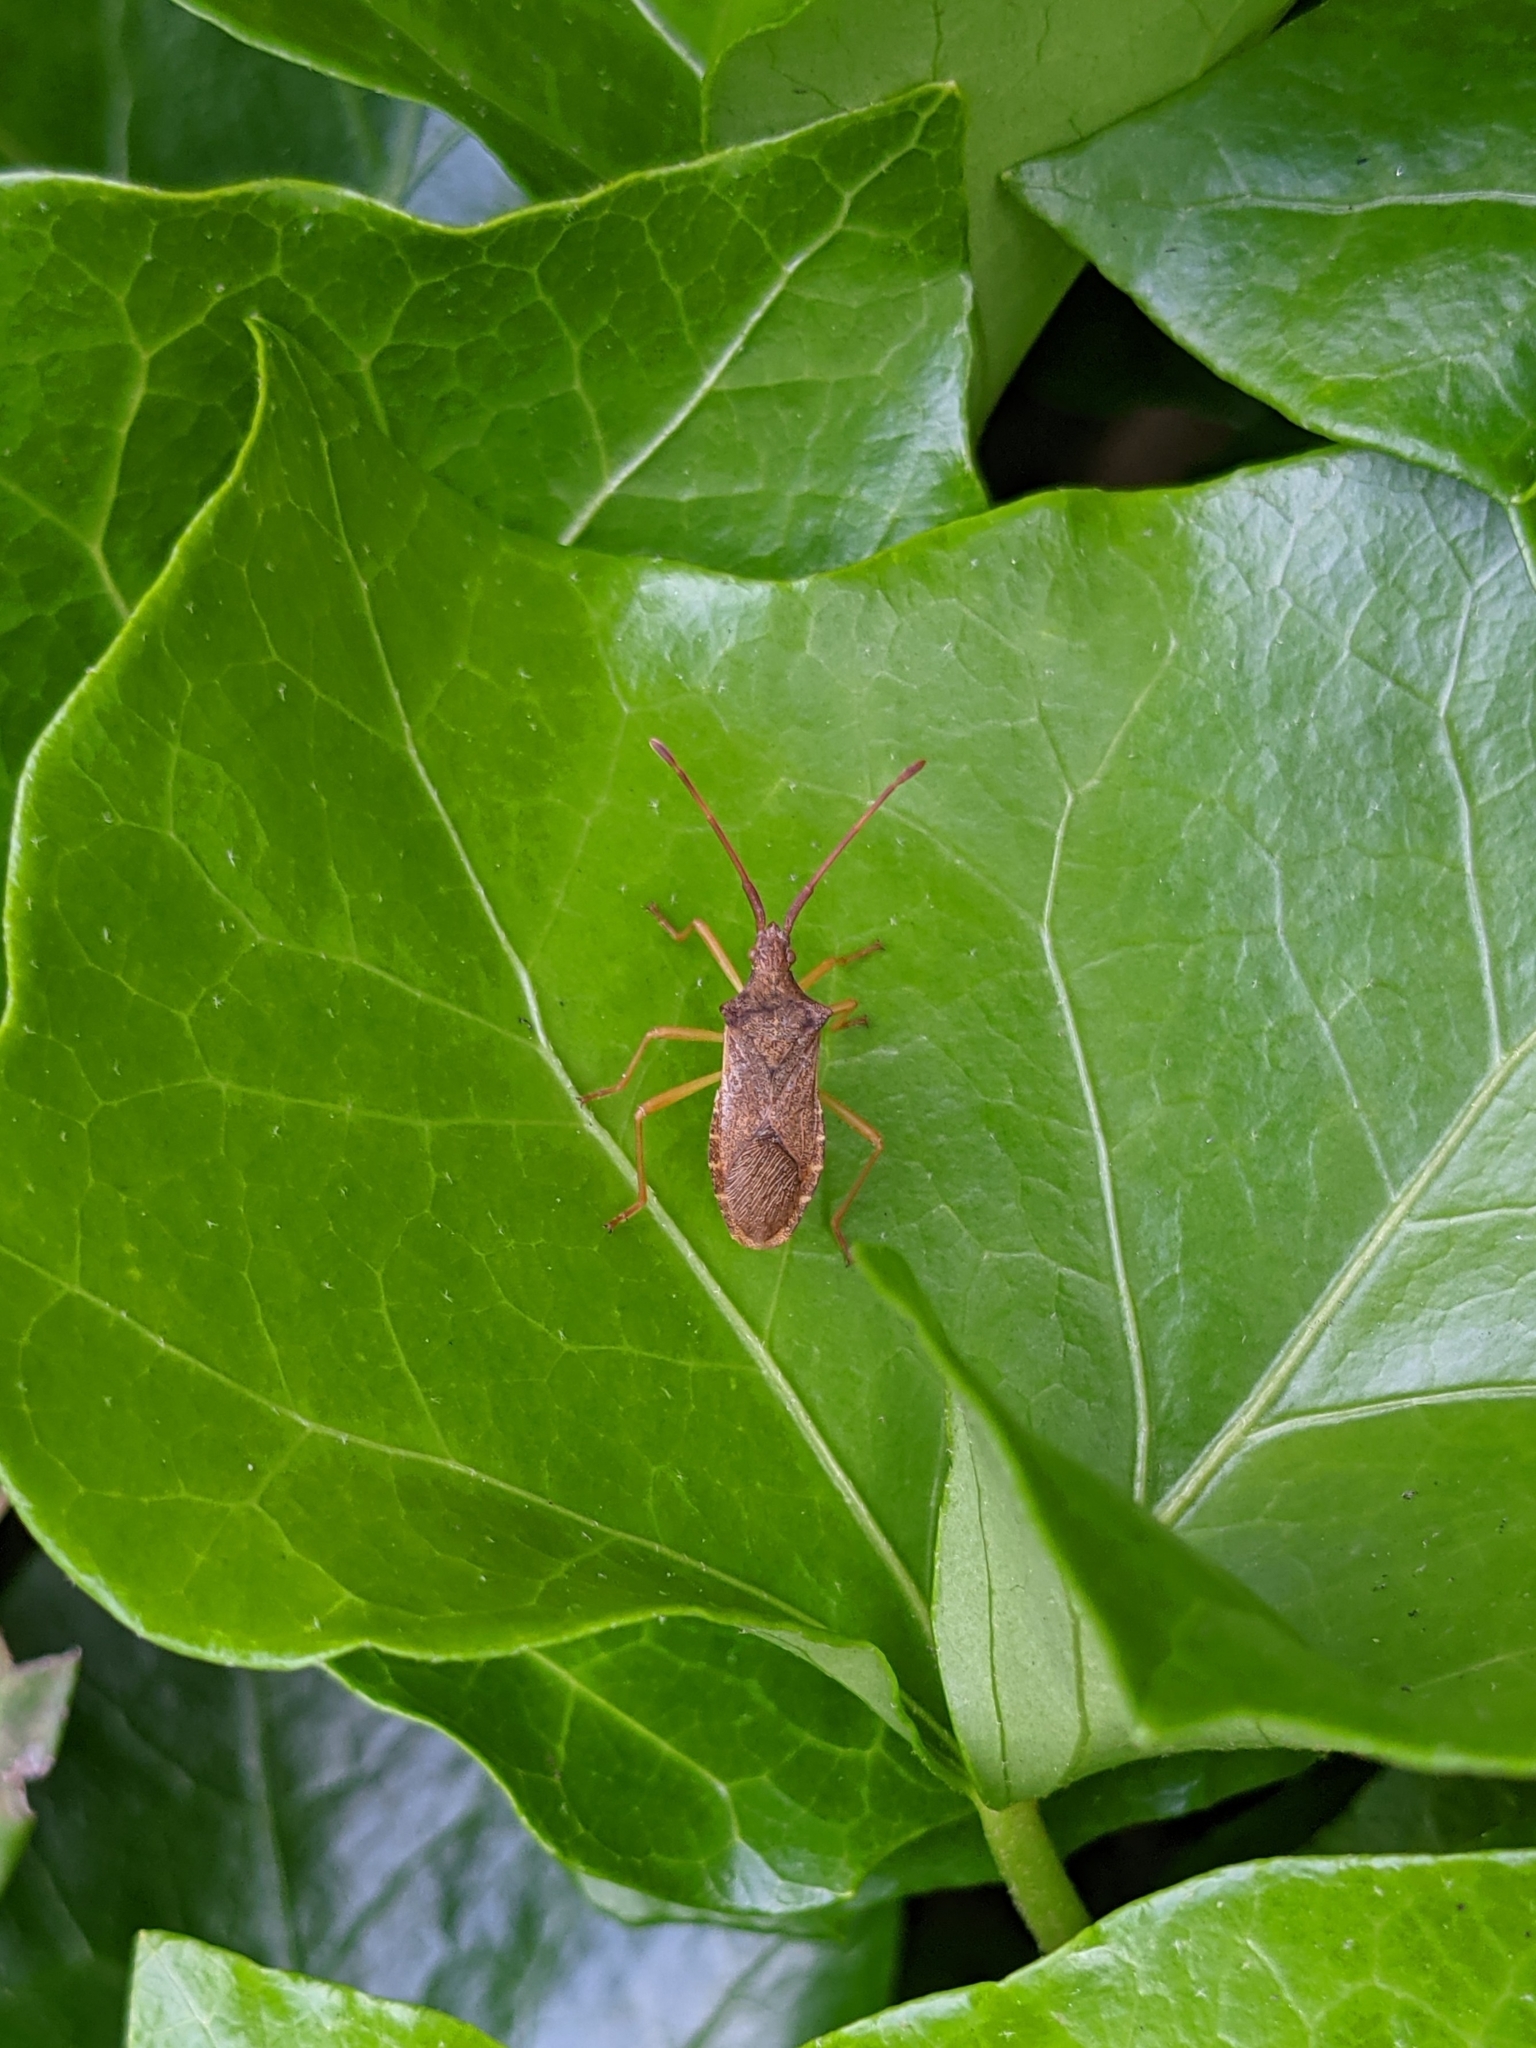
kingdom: Animalia
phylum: Arthropoda
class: Insecta
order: Hemiptera
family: Coreidae
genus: Gonocerus
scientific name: Gonocerus acuteangulatus
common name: Box bug
